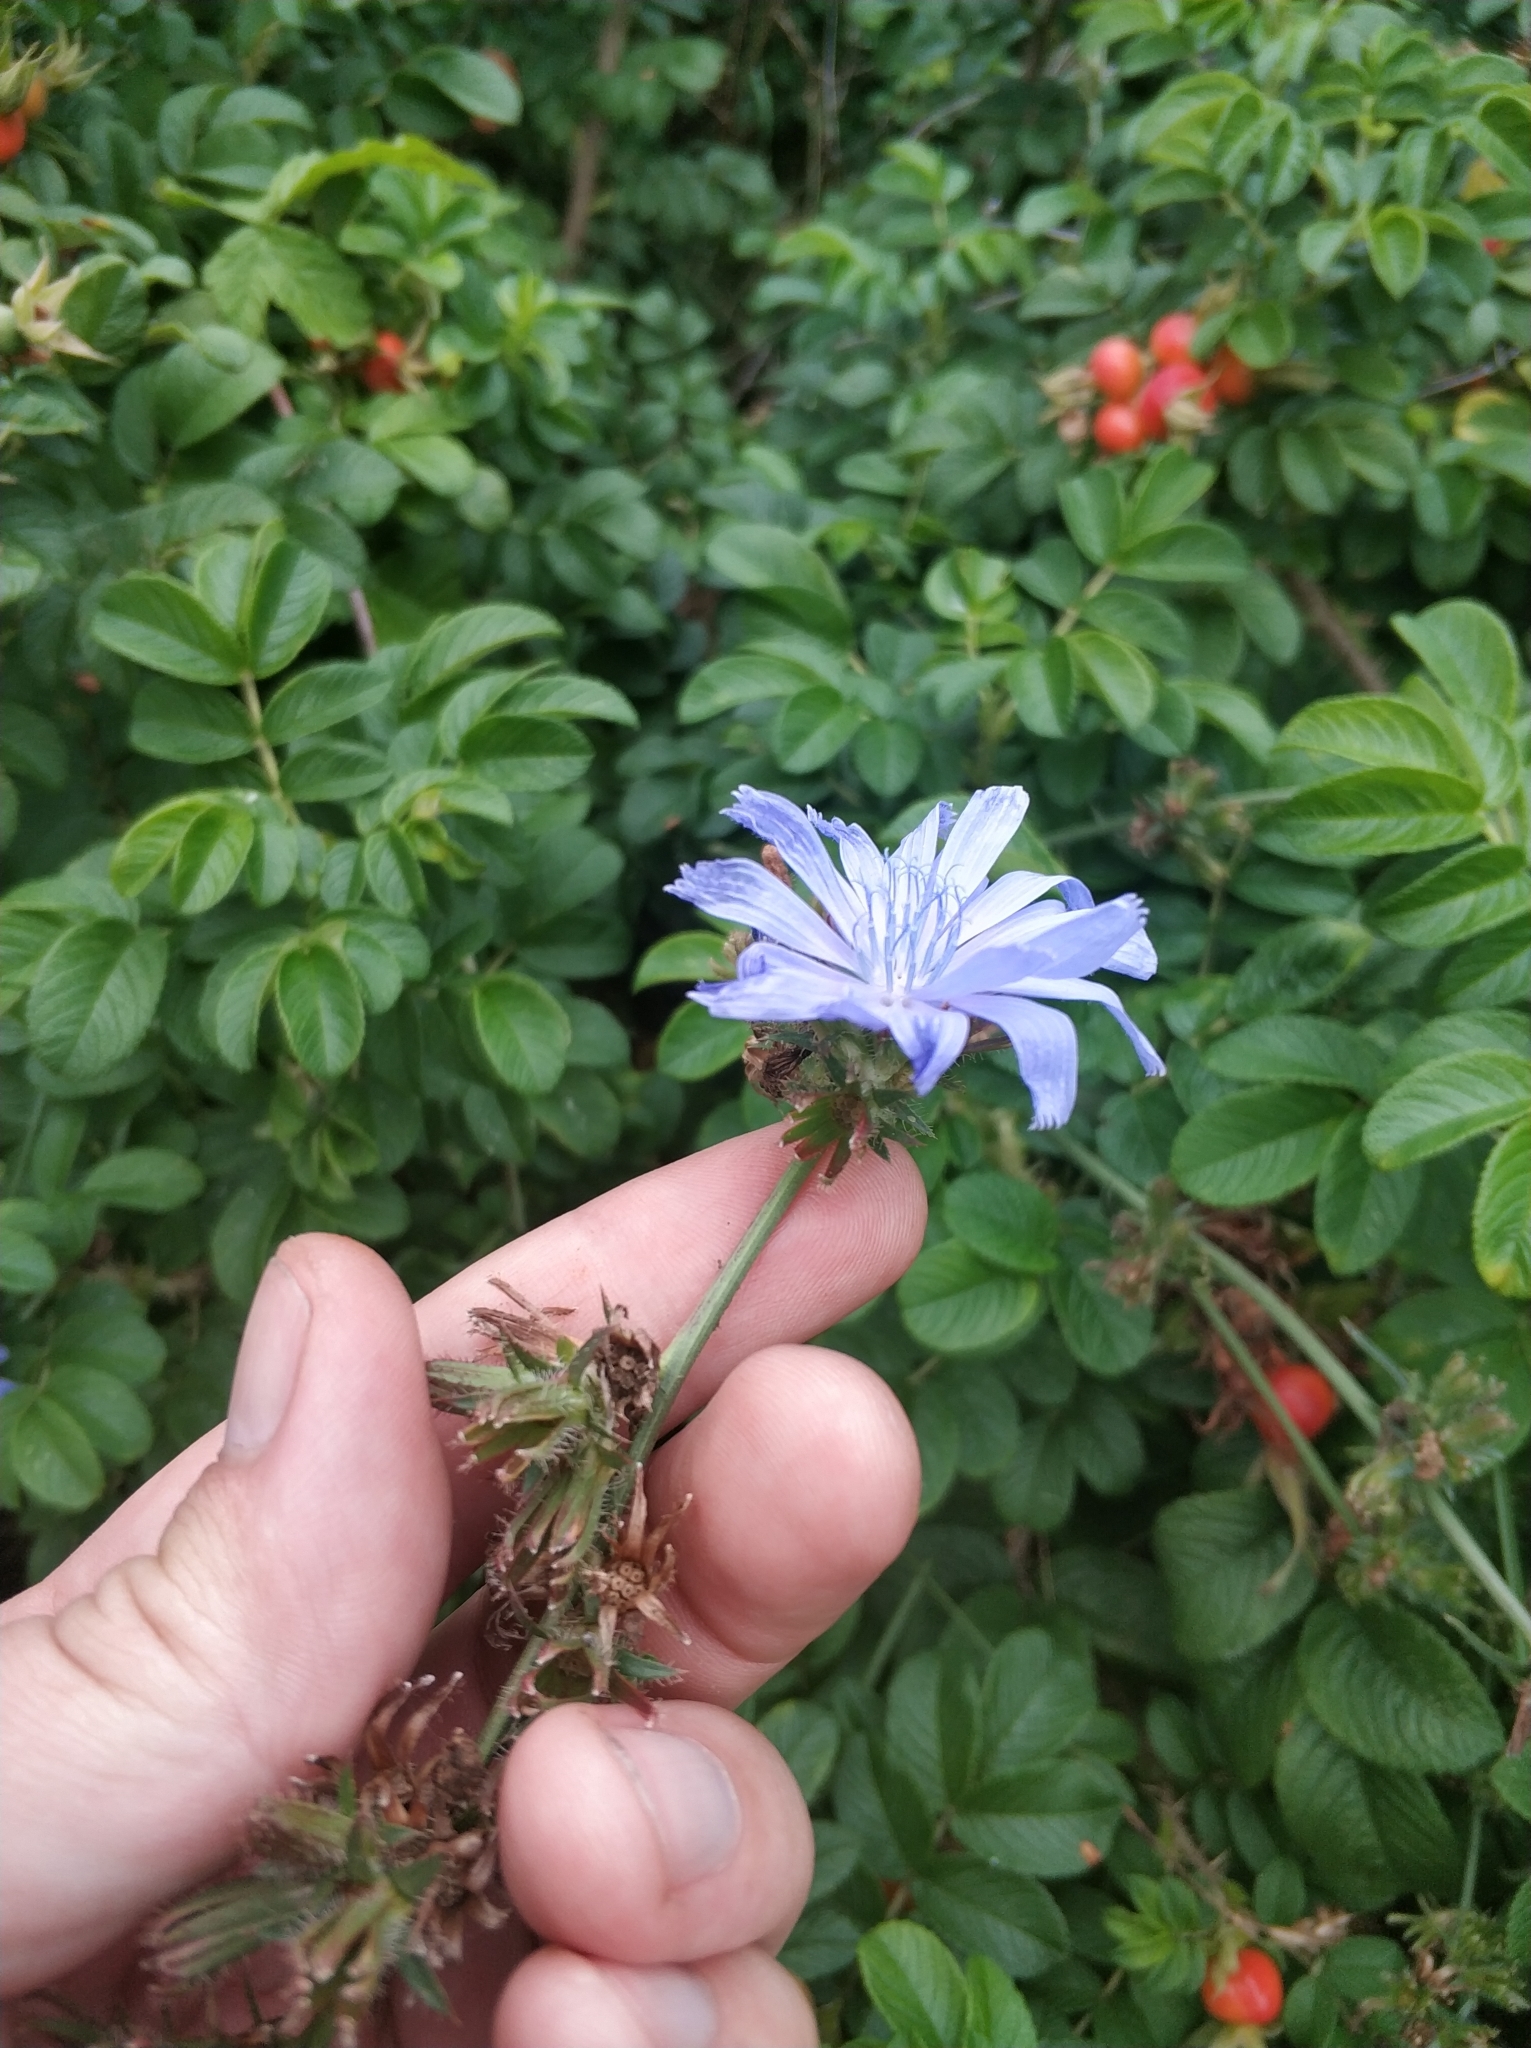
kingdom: Plantae
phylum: Tracheophyta
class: Magnoliopsida
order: Asterales
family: Asteraceae
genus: Cichorium
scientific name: Cichorium intybus
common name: Chicory
